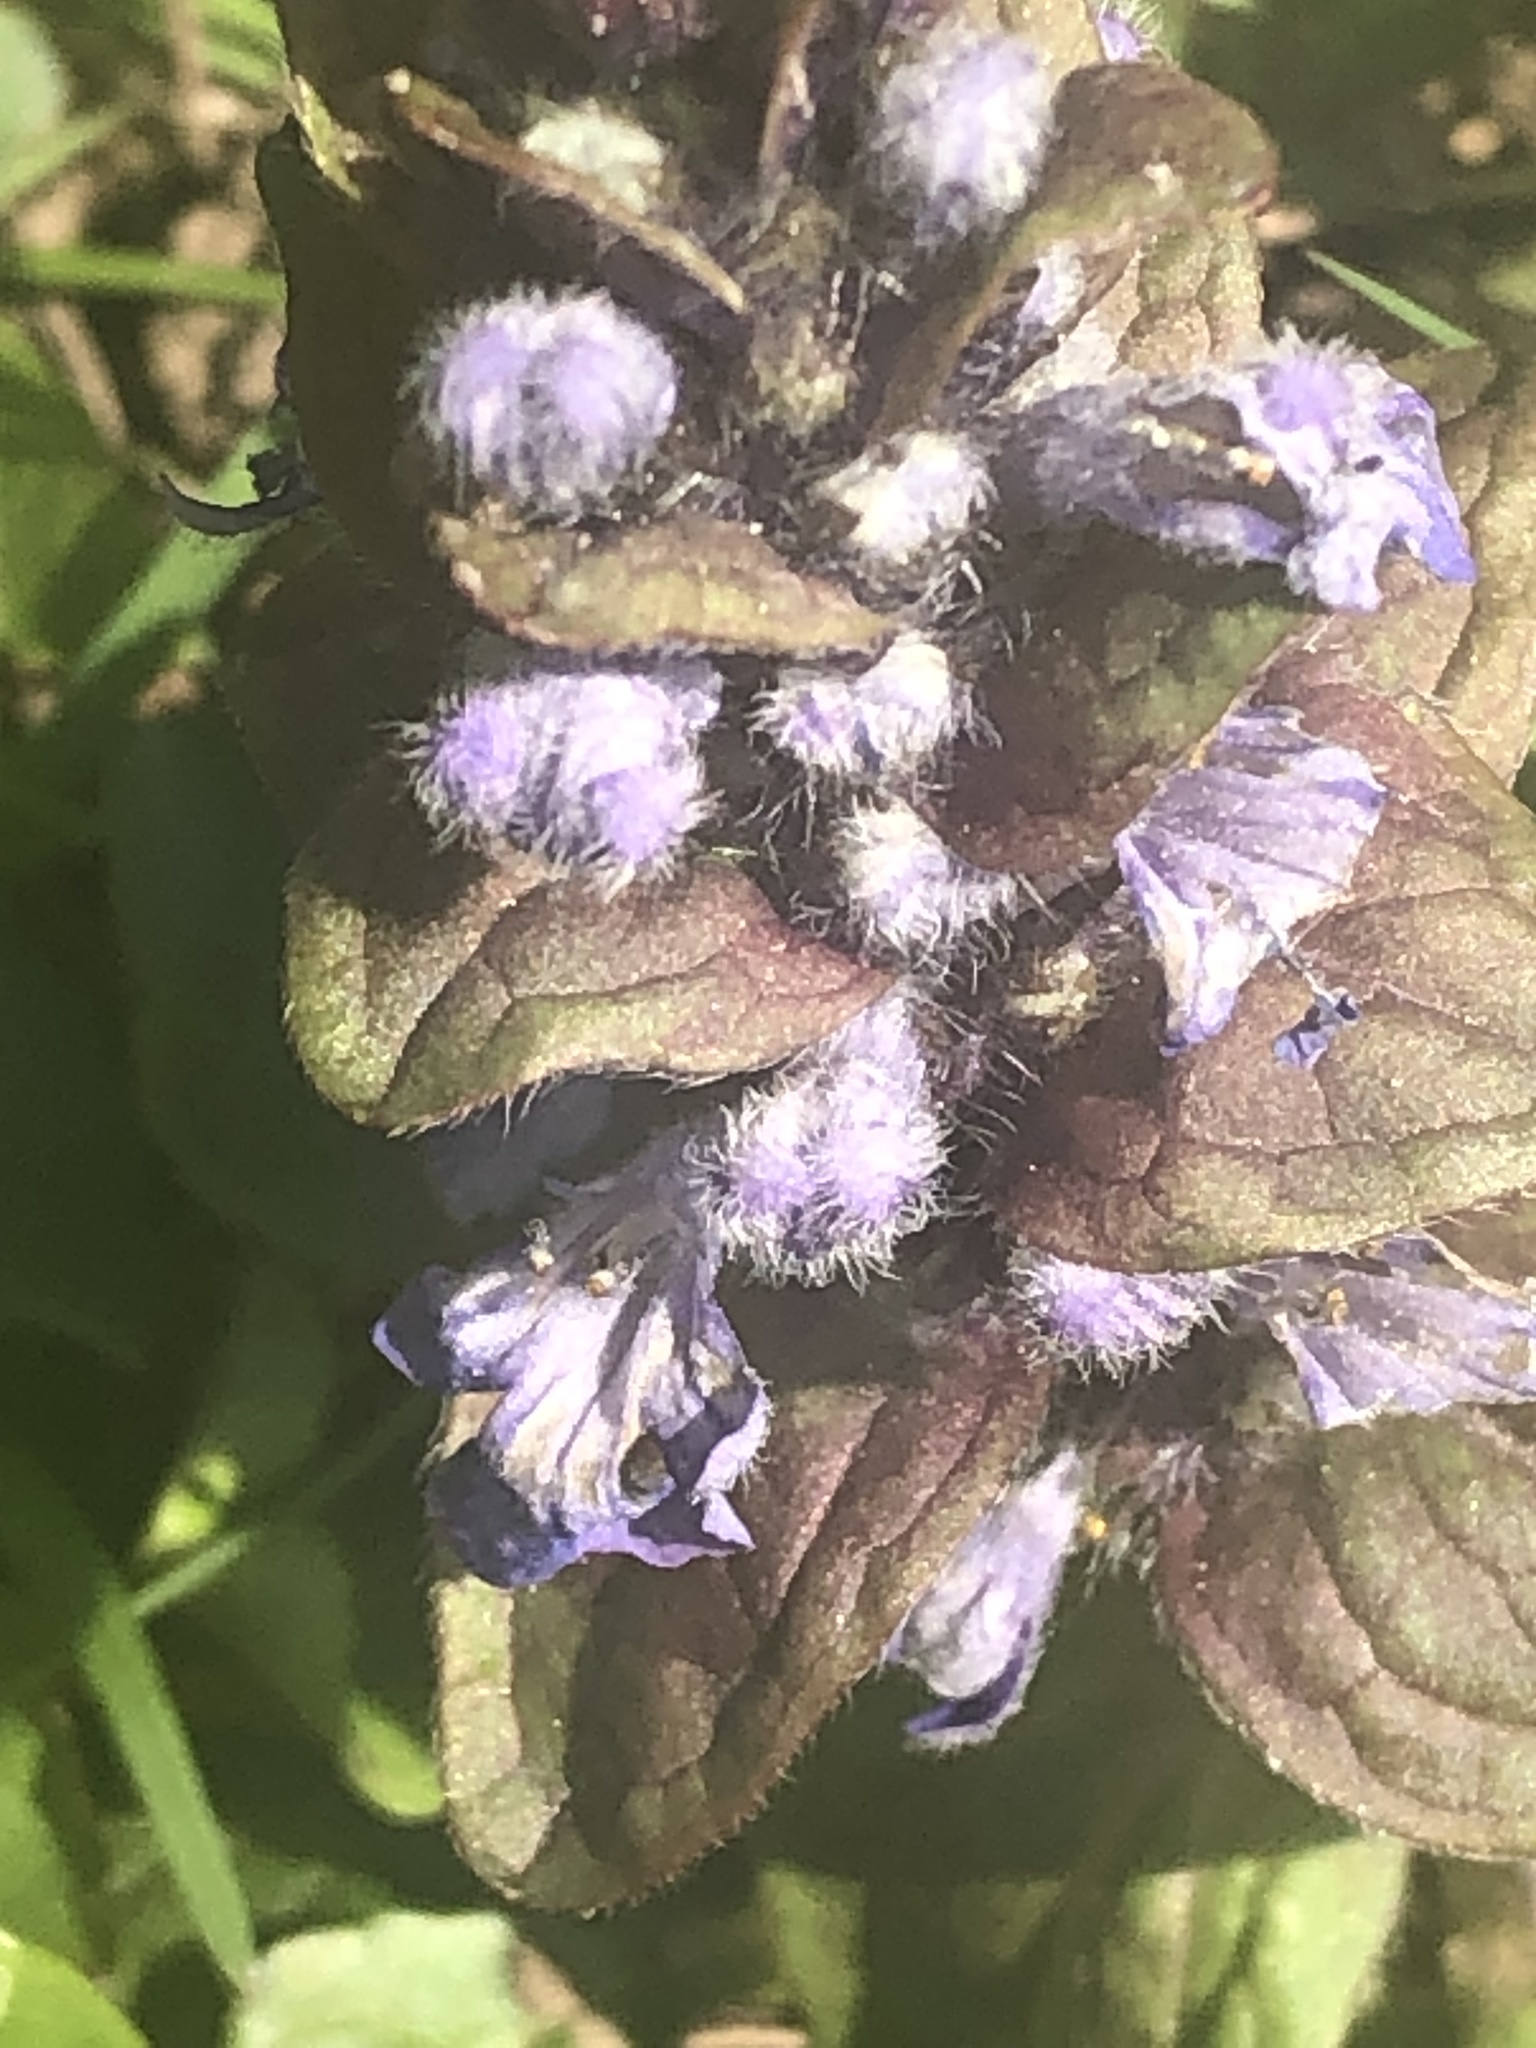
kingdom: Plantae
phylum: Tracheophyta
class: Magnoliopsida
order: Lamiales
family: Lamiaceae
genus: Ajuga
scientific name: Ajuga reptans
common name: Bugle
